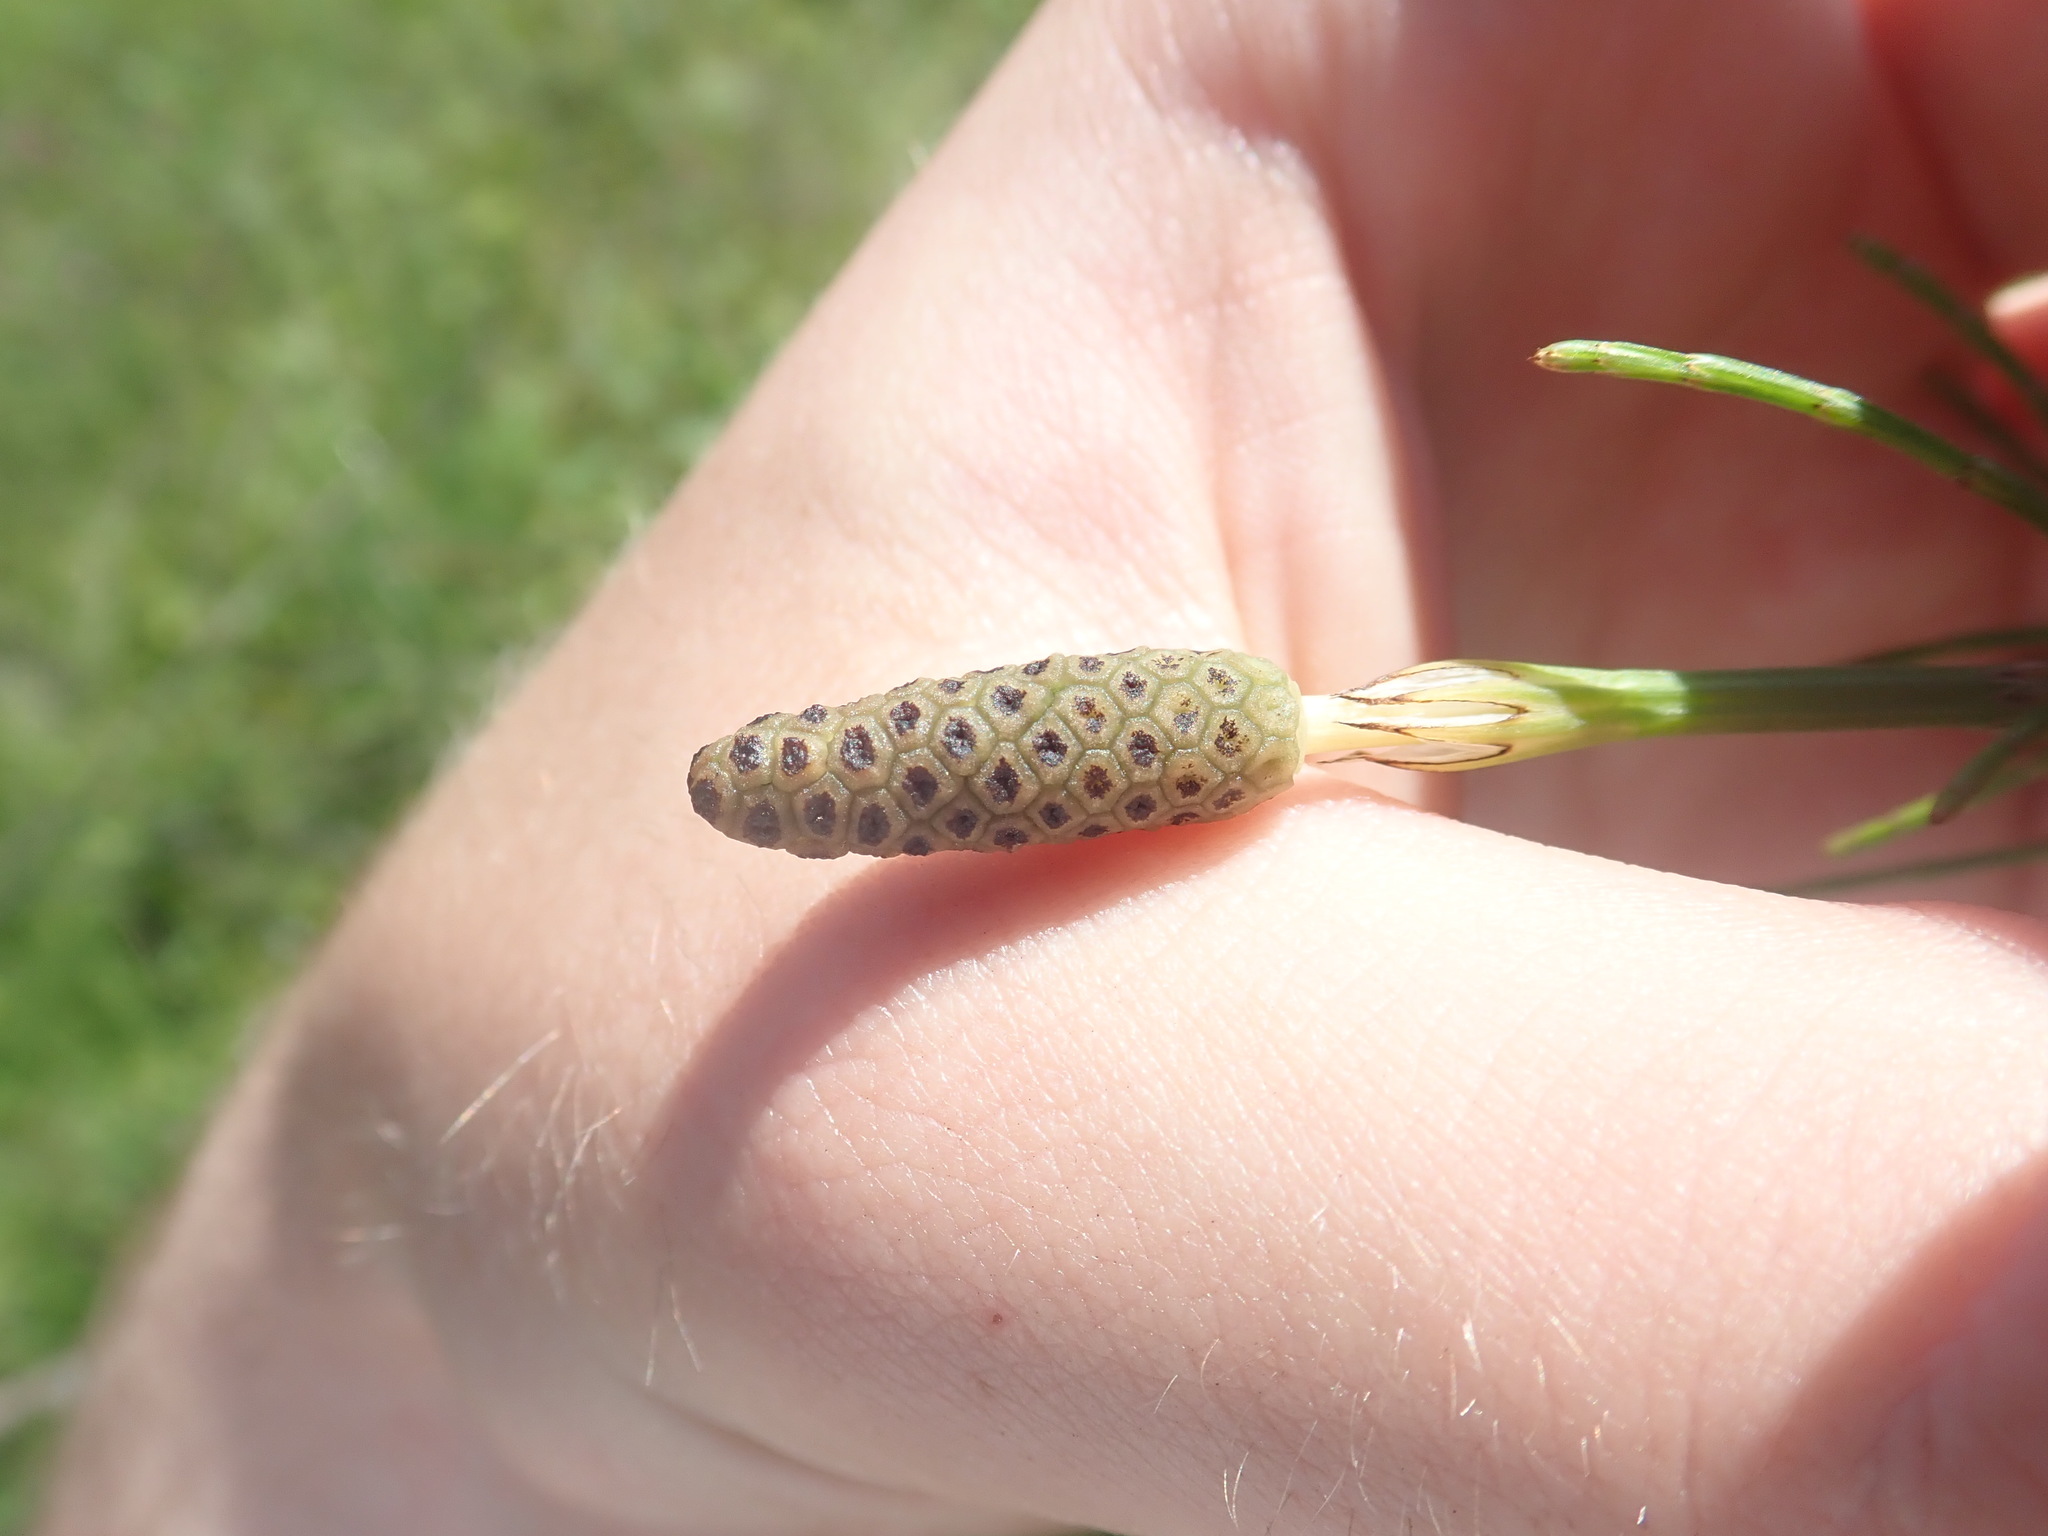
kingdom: Plantae
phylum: Tracheophyta
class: Polypodiopsida
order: Equisetales
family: Equisetaceae
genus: Equisetum
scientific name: Equisetum palustre
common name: Marsh horsetail
